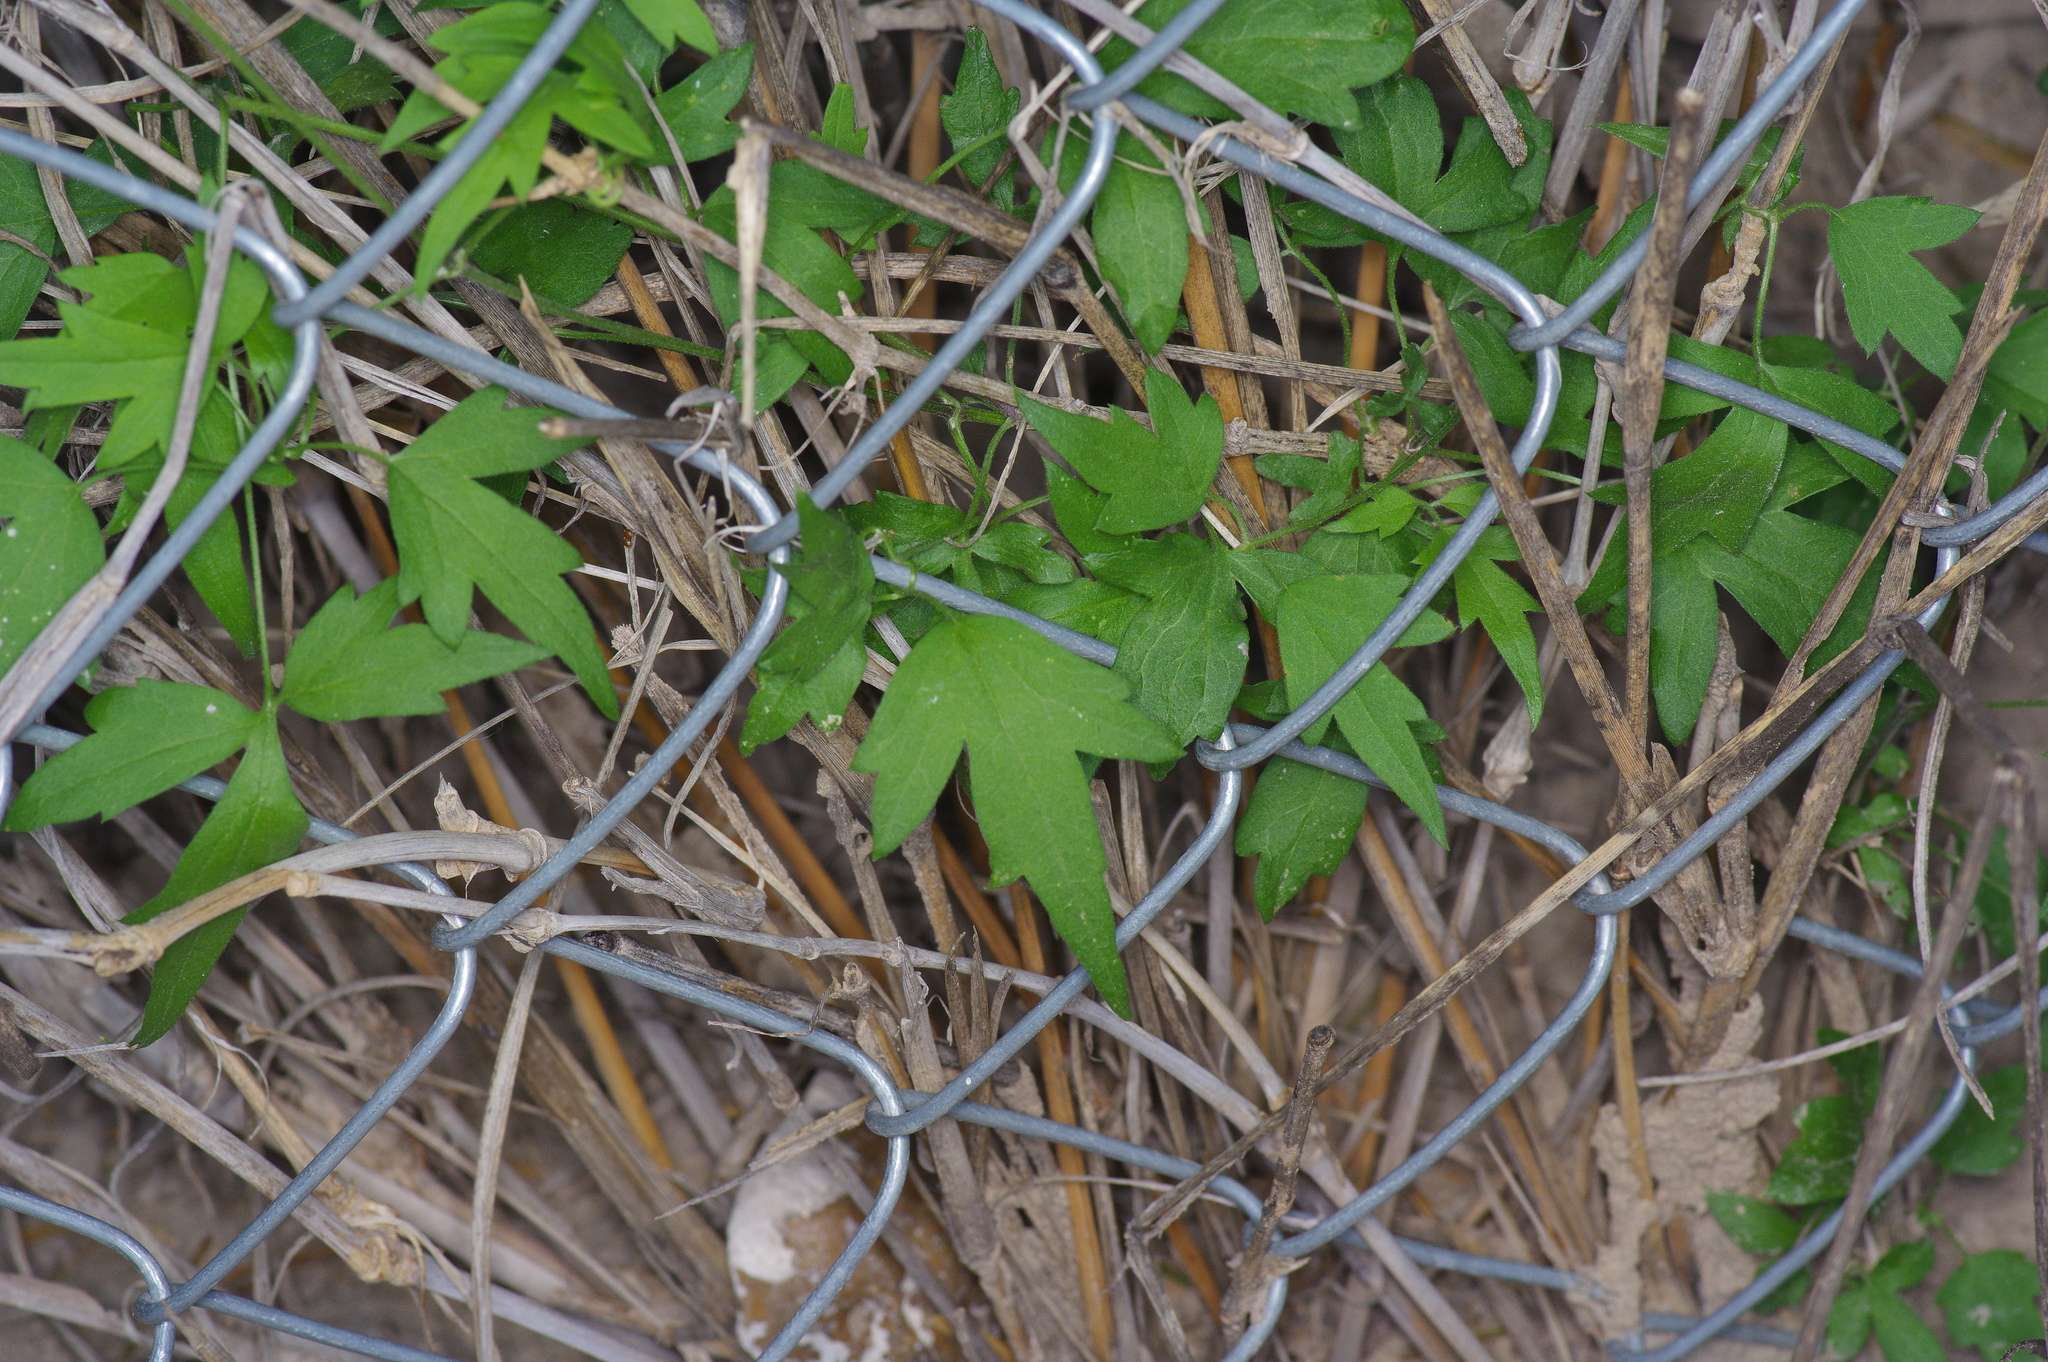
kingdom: Plantae
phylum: Tracheophyta
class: Magnoliopsida
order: Ranunculales
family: Ranunculaceae
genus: Clematis
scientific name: Clematis drummondii
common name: Texas virgin's bower
